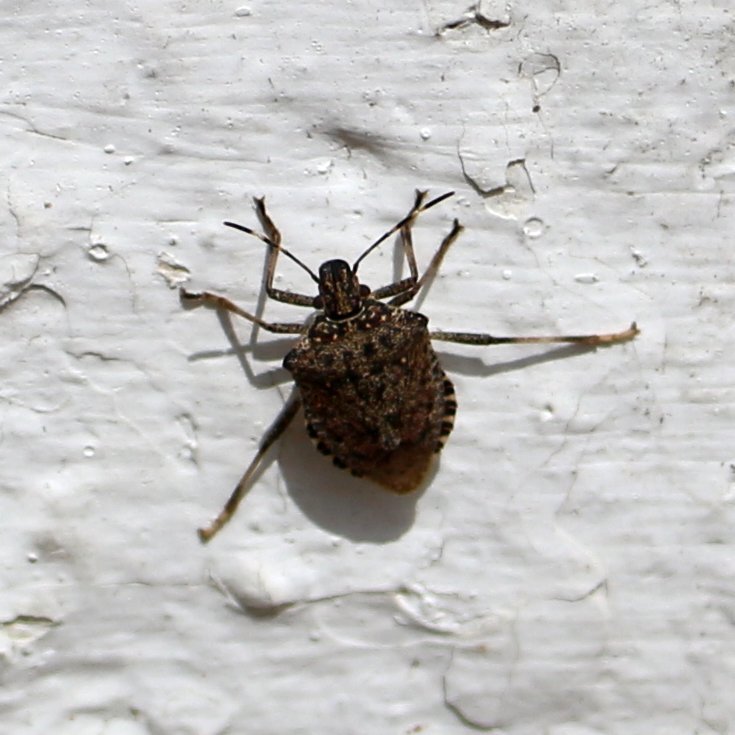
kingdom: Animalia
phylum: Arthropoda
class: Insecta
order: Hemiptera
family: Pentatomidae
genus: Halyomorpha
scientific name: Halyomorpha halys
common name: Brown marmorated stink bug
